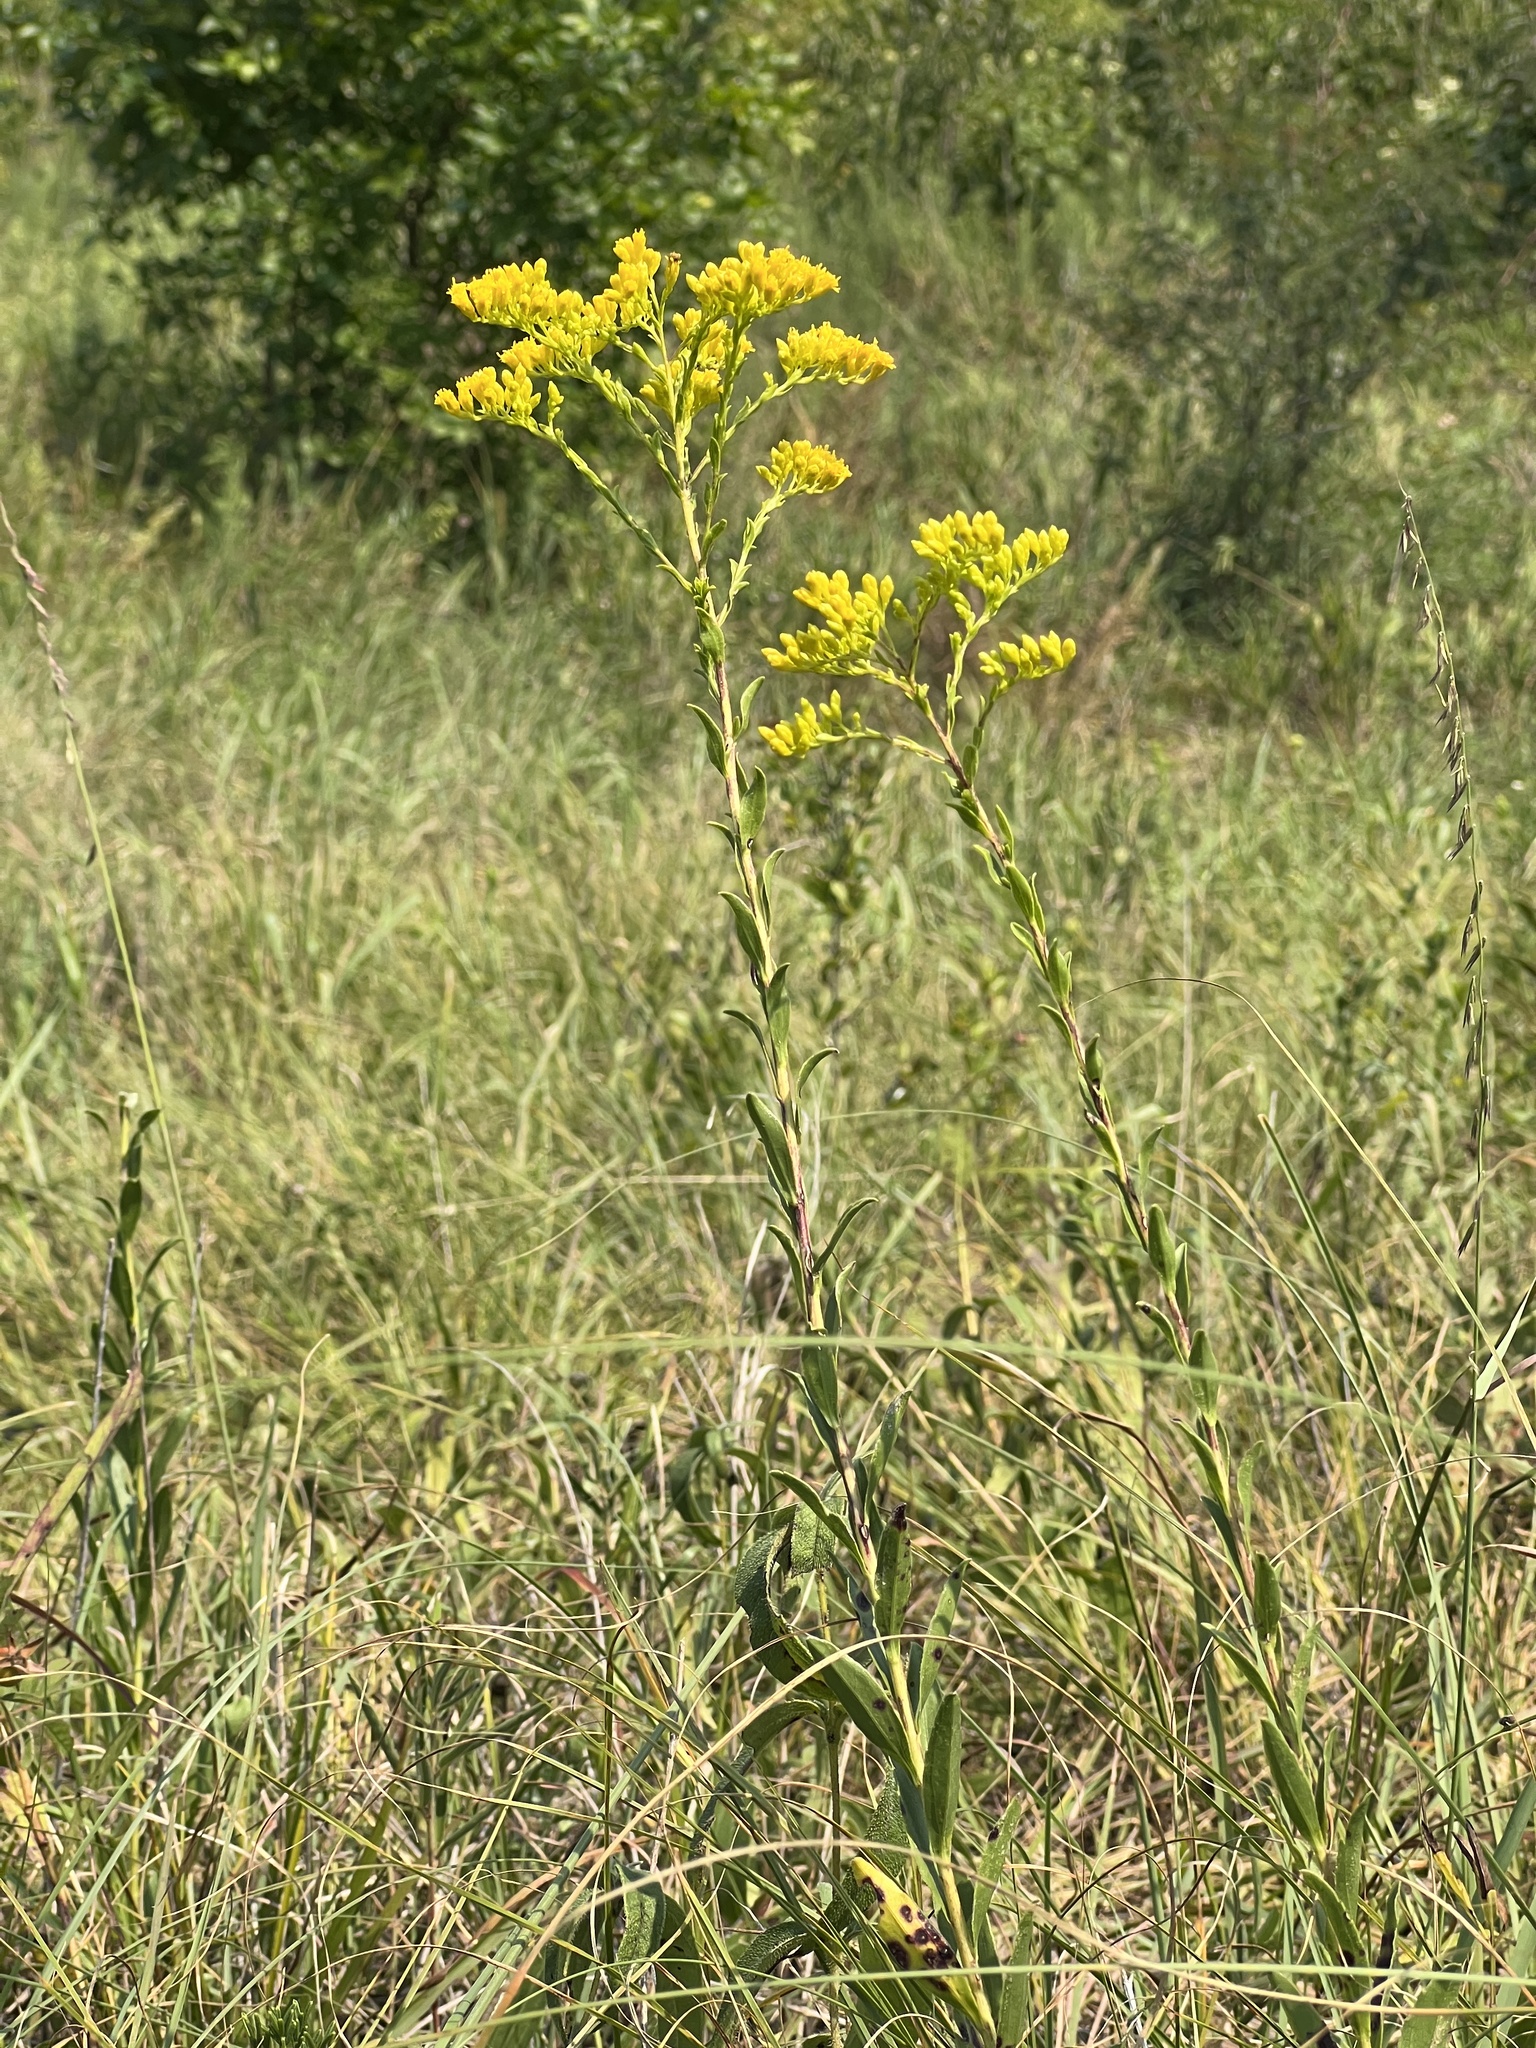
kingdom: Plantae
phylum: Tracheophyta
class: Magnoliopsida
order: Asterales
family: Asteraceae
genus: Solidago
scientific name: Solidago gattingeri
